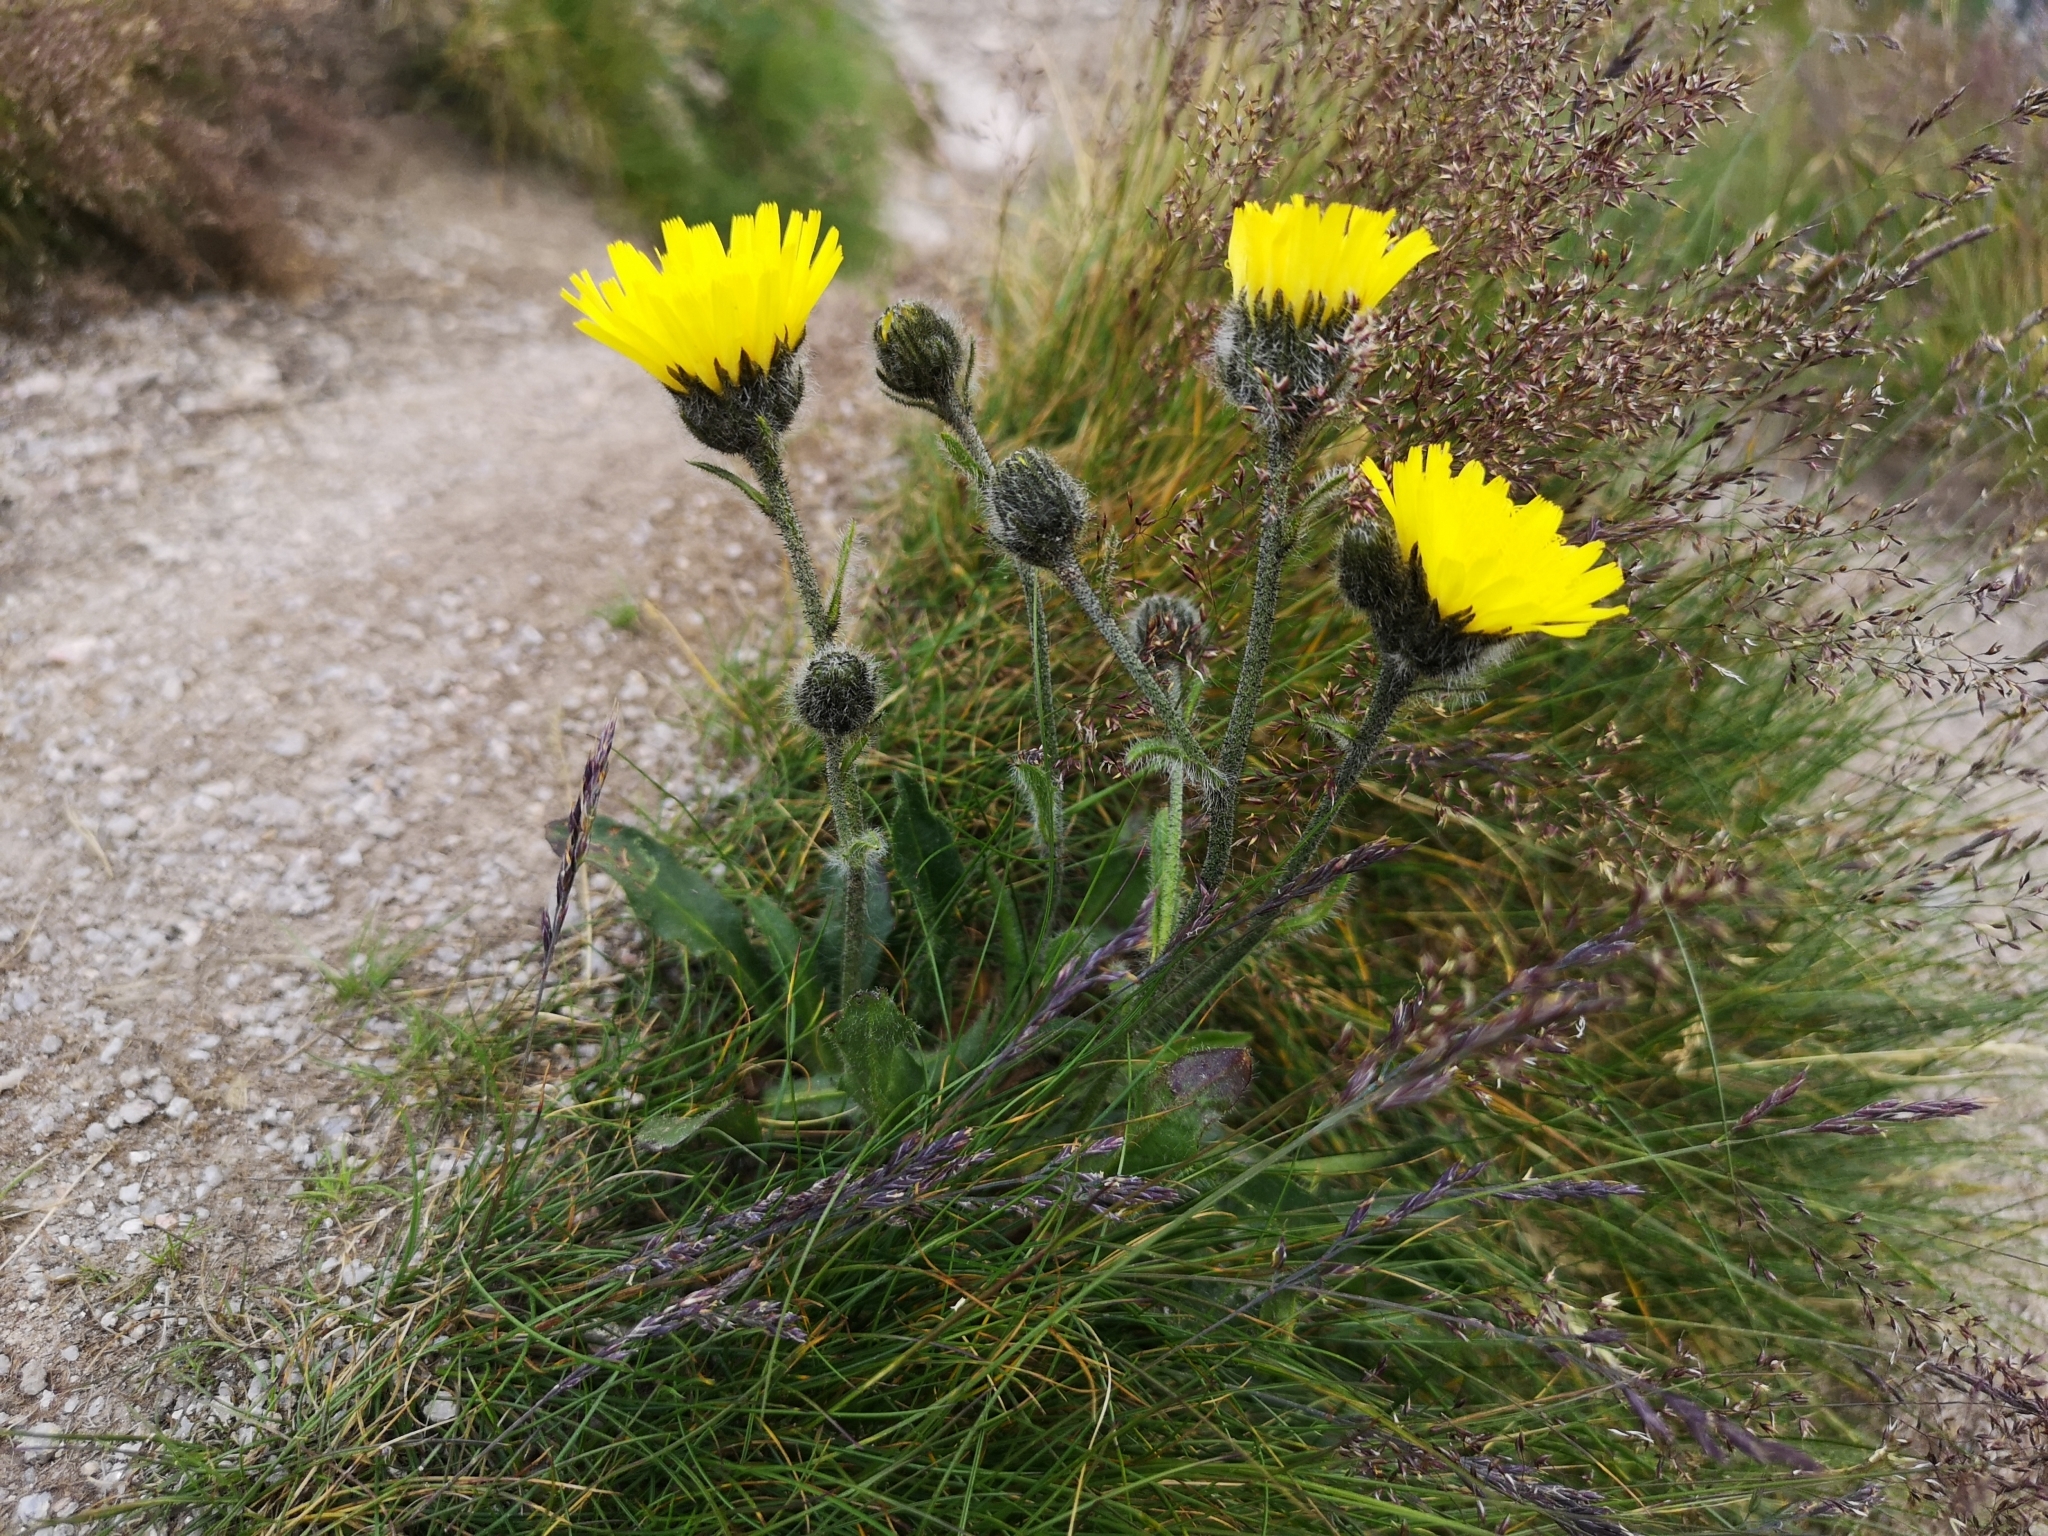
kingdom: Plantae
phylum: Tracheophyta
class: Magnoliopsida
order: Asterales
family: Asteraceae
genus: Hieracium
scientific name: Hieracium alpinum
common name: Alpine hawkweed
